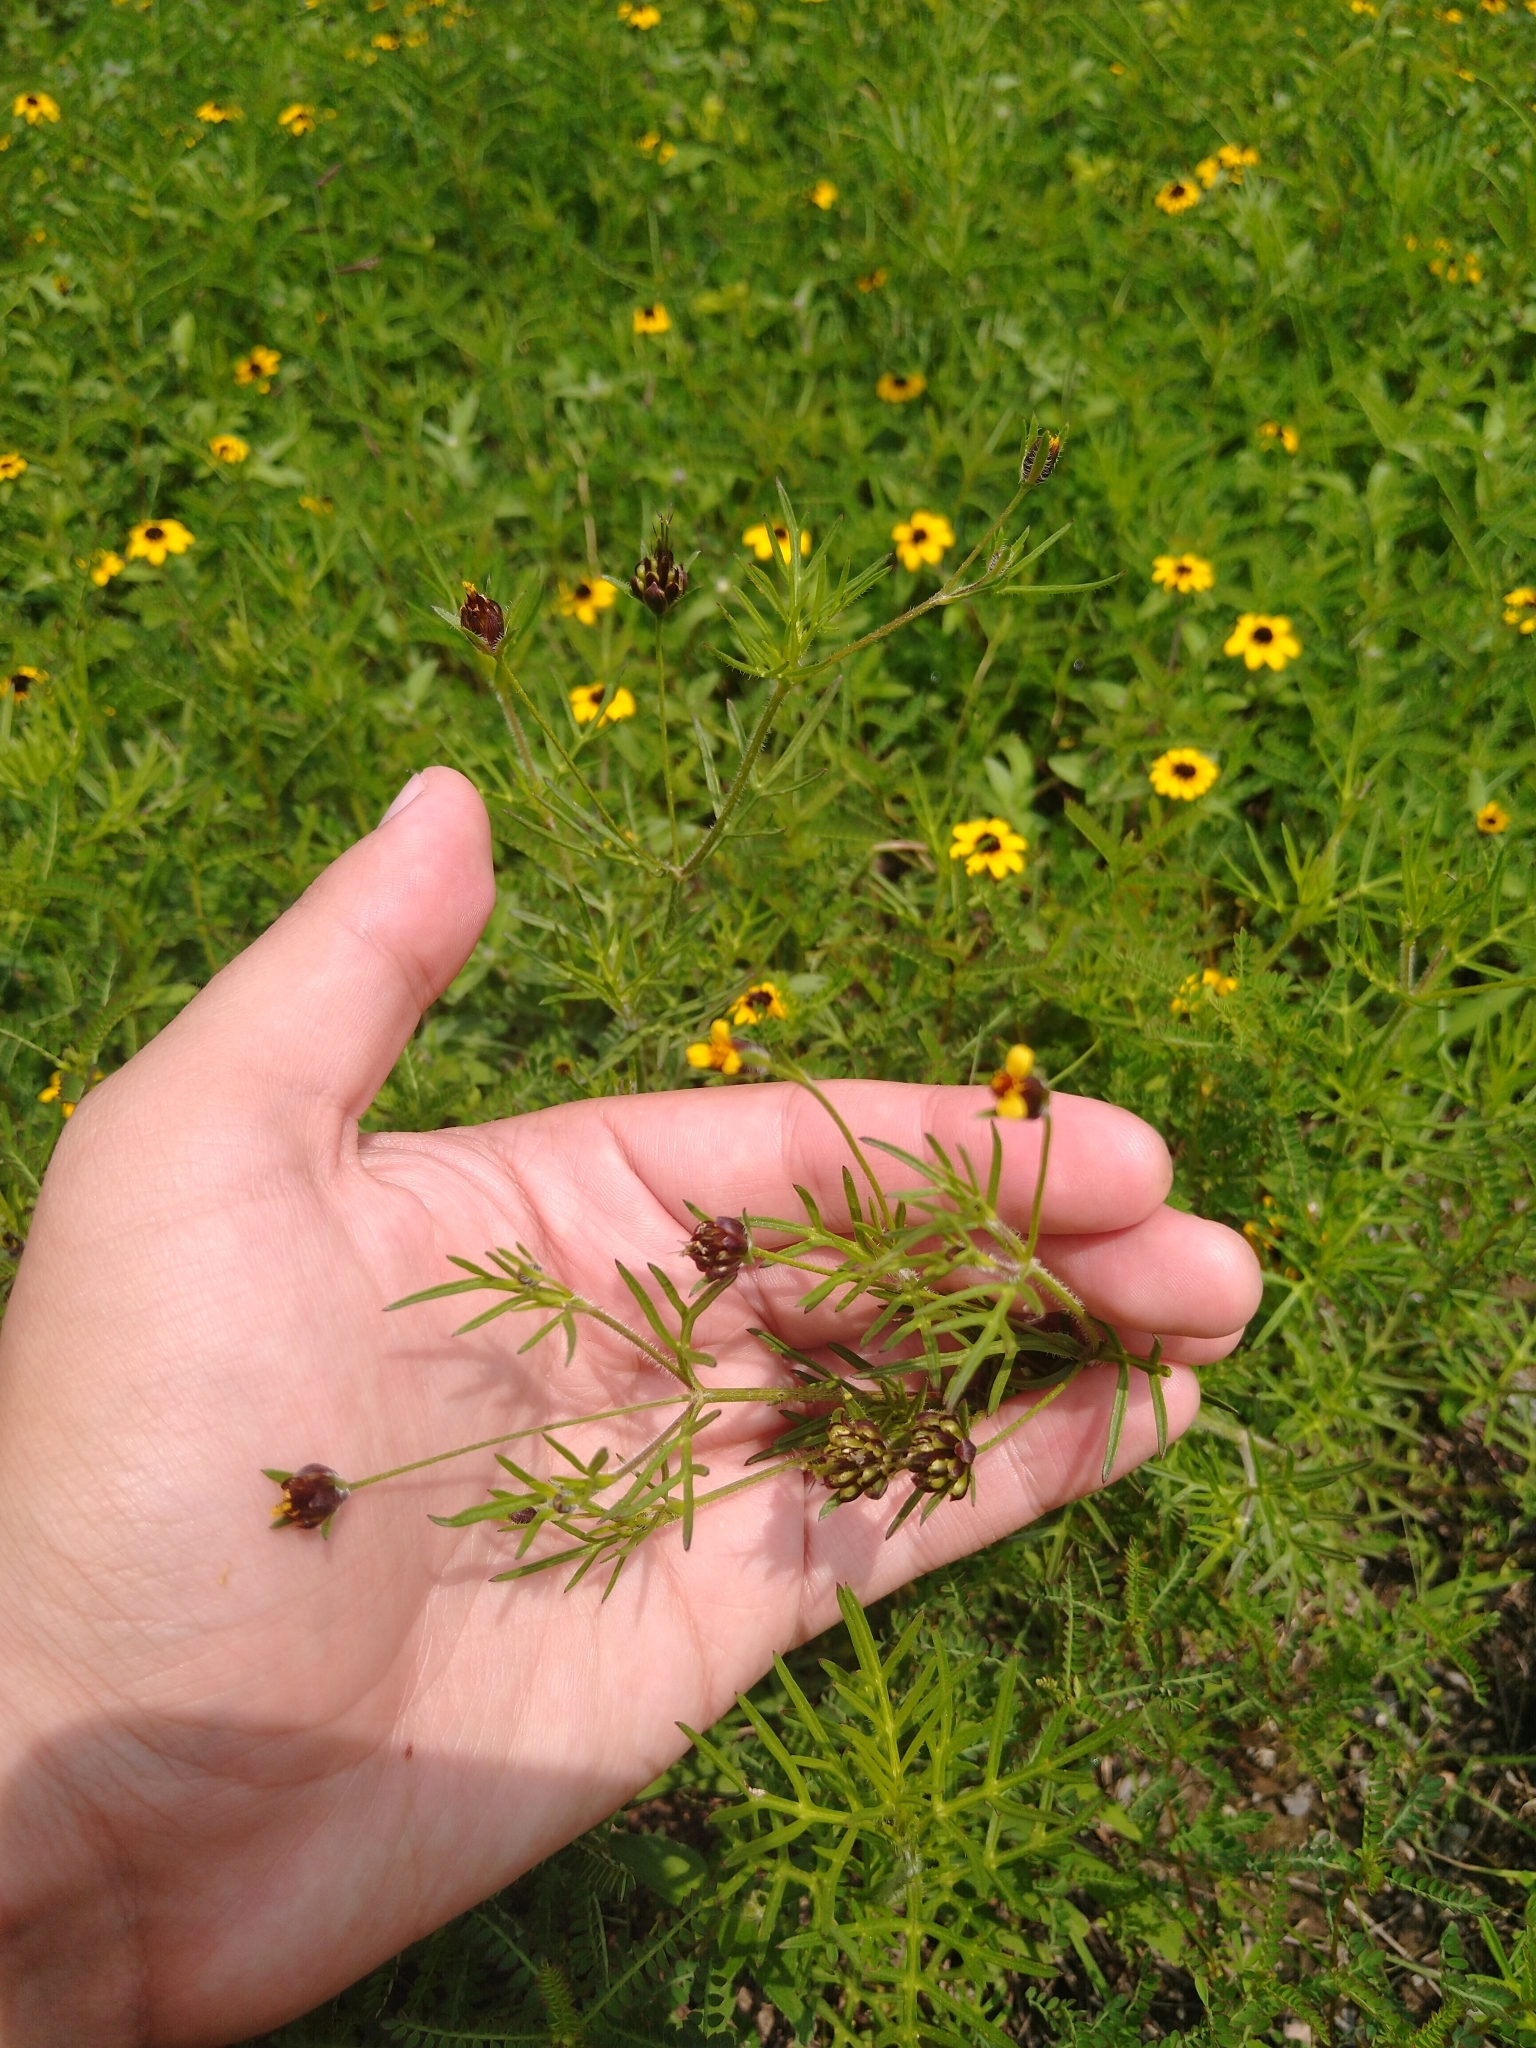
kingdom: Plantae
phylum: Tracheophyta
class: Magnoliopsida
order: Asterales
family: Asteraceae
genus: Heterosperma
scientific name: Heterosperma pinnatum
